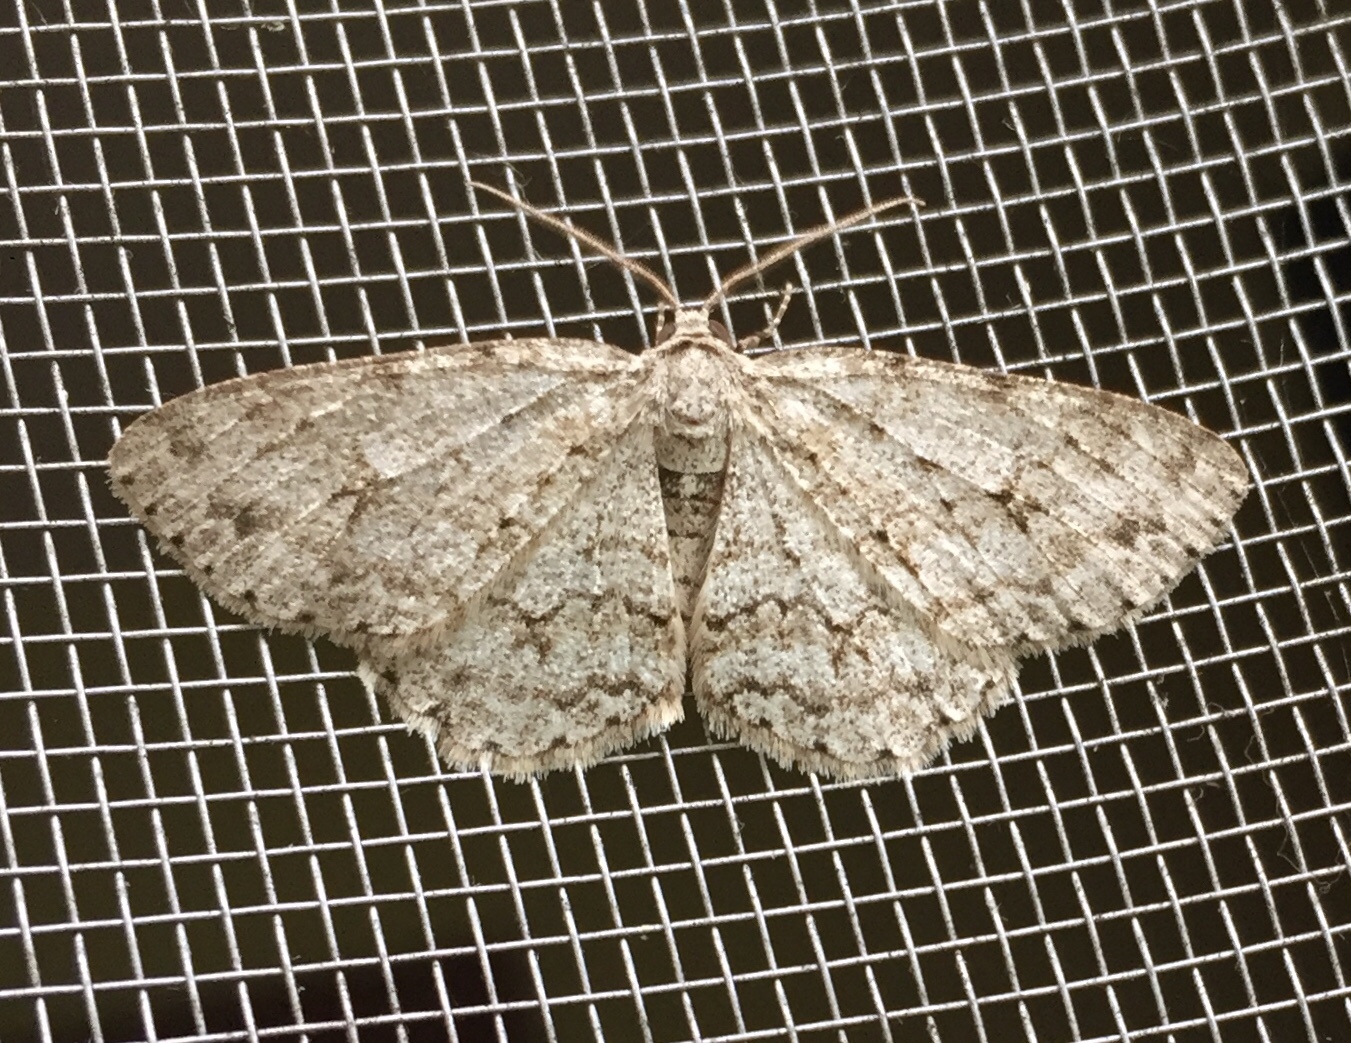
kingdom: Animalia
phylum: Arthropoda
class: Insecta
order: Lepidoptera
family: Geometridae
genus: Ectropis
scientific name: Ectropis crepuscularia
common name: Engrailed
